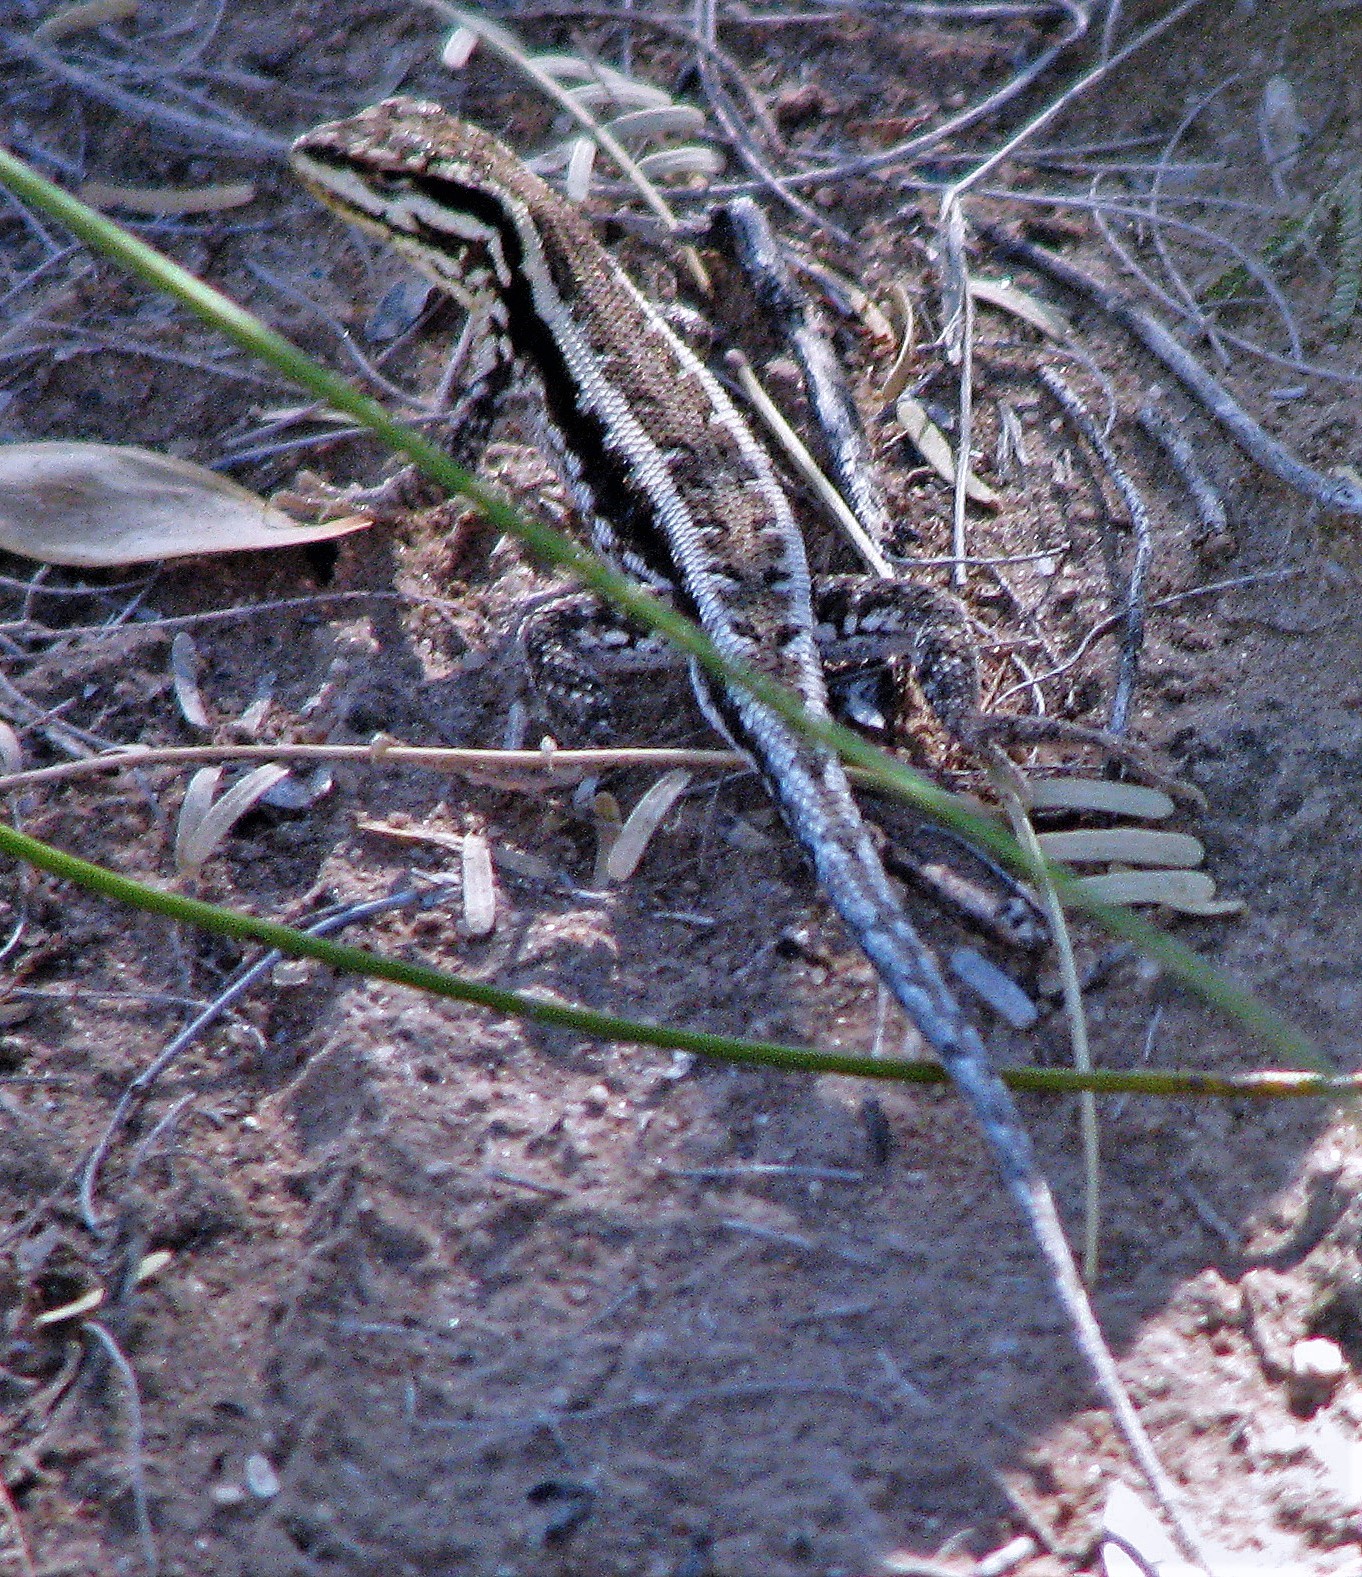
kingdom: Animalia
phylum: Chordata
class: Squamata
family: Liolaemidae
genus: Liolaemus
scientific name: Liolaemus chacoensis
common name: Chaco tree iguana
